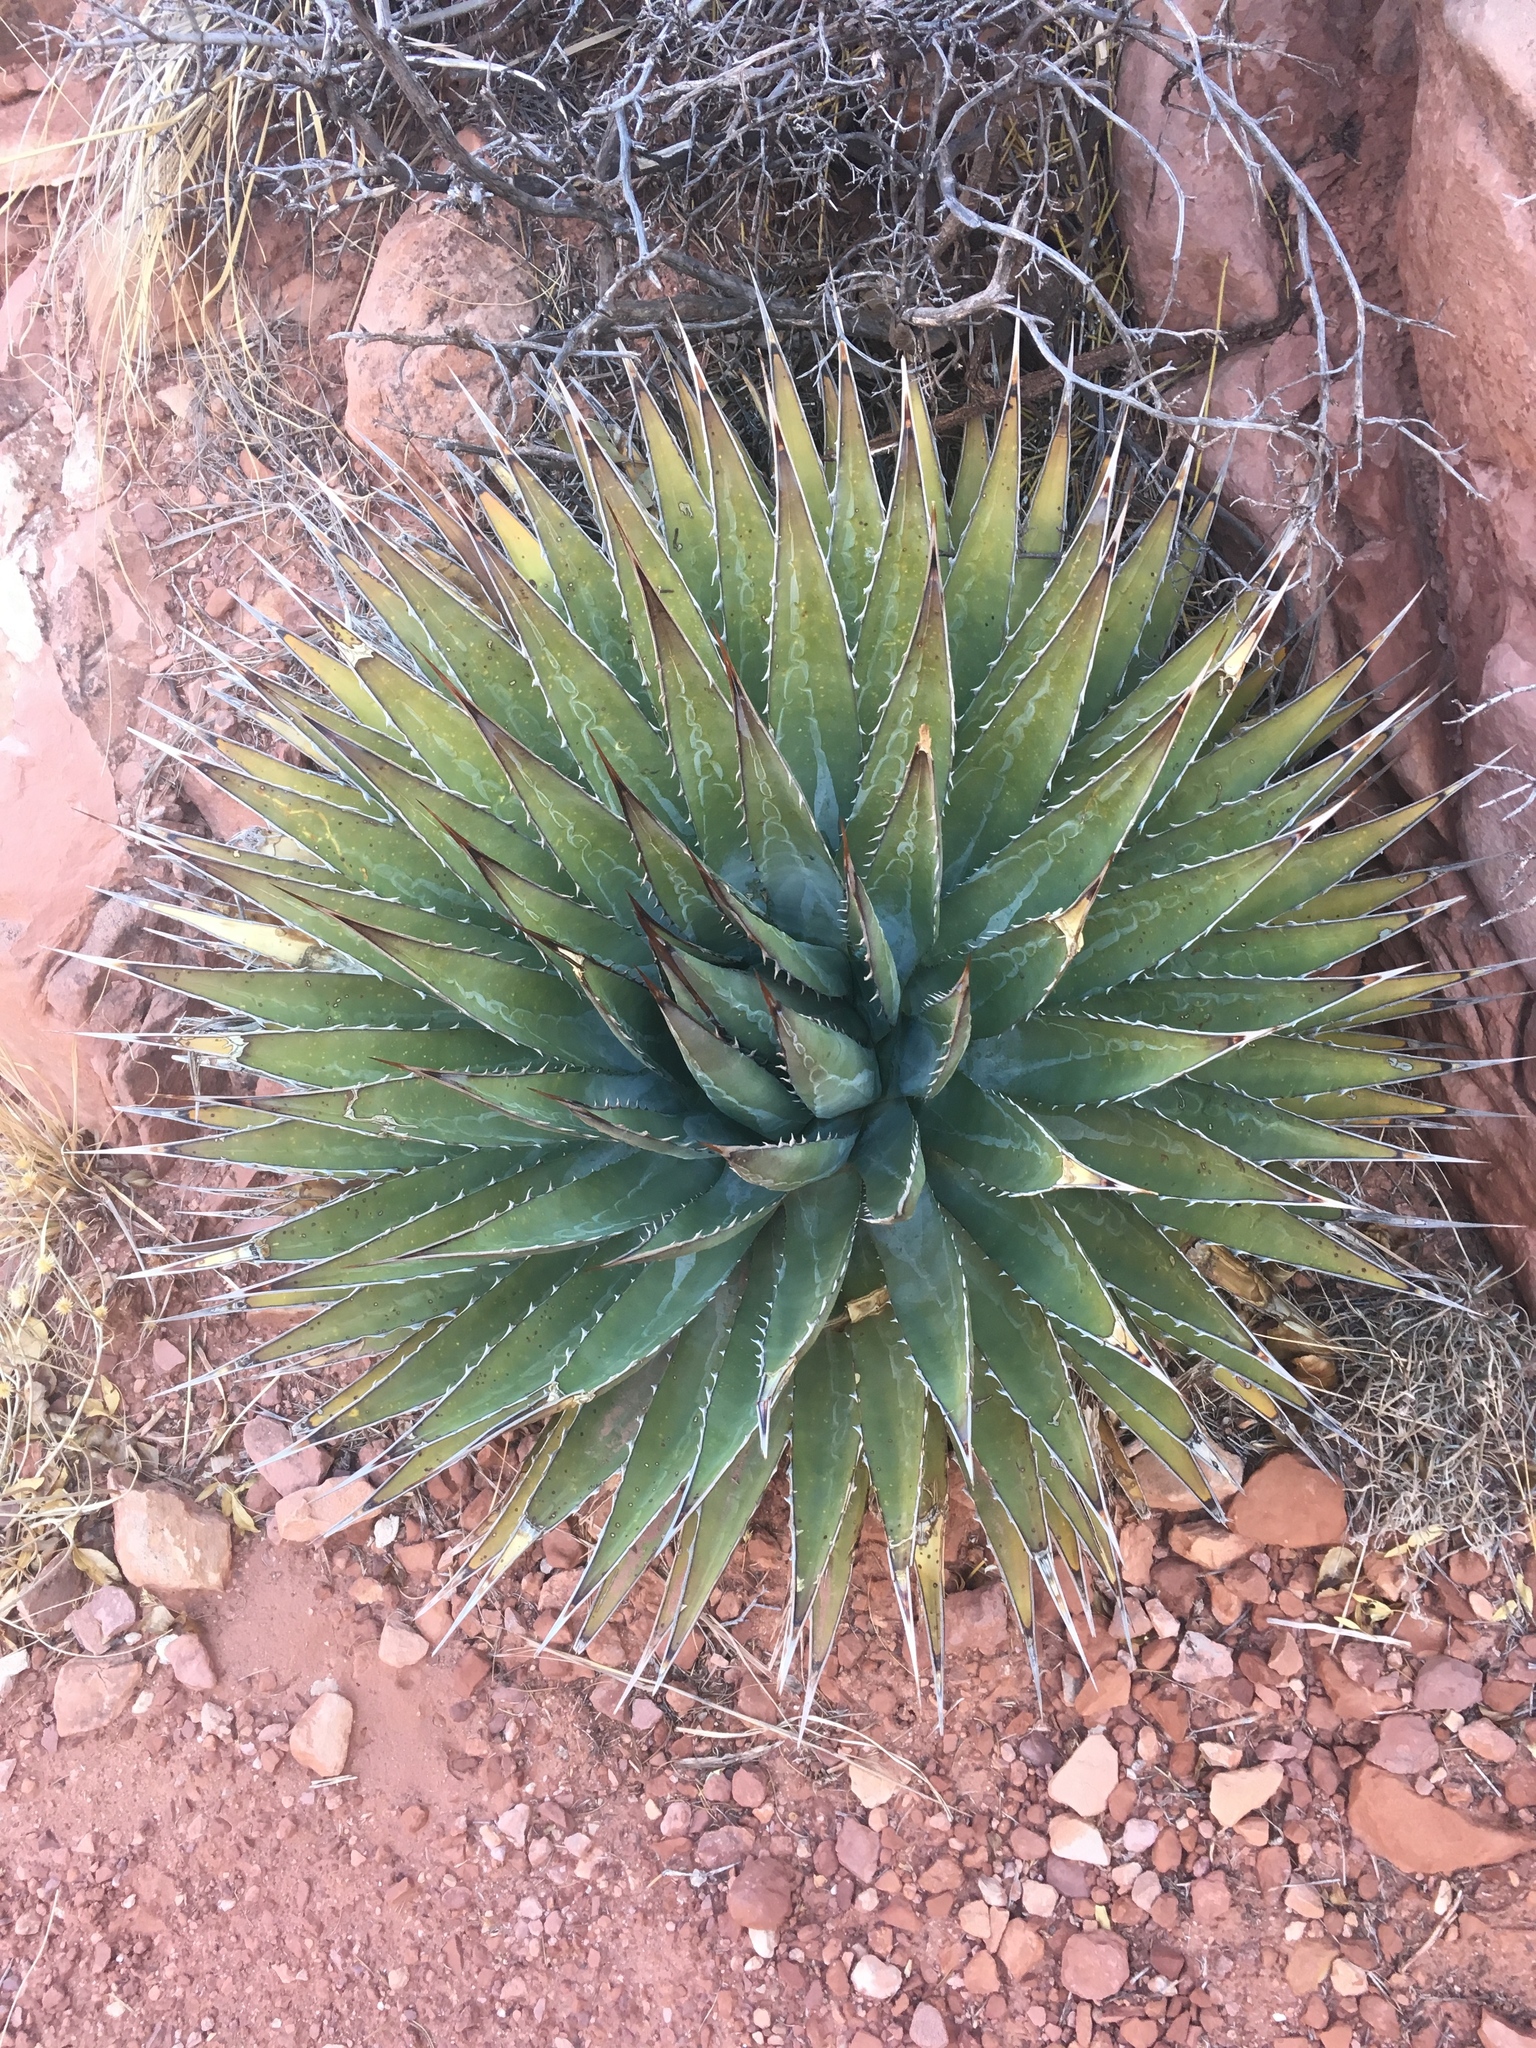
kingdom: Plantae
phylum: Tracheophyta
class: Liliopsida
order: Asparagales
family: Asparagaceae
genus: Agave
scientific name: Agave utahensis
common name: Utah agave
